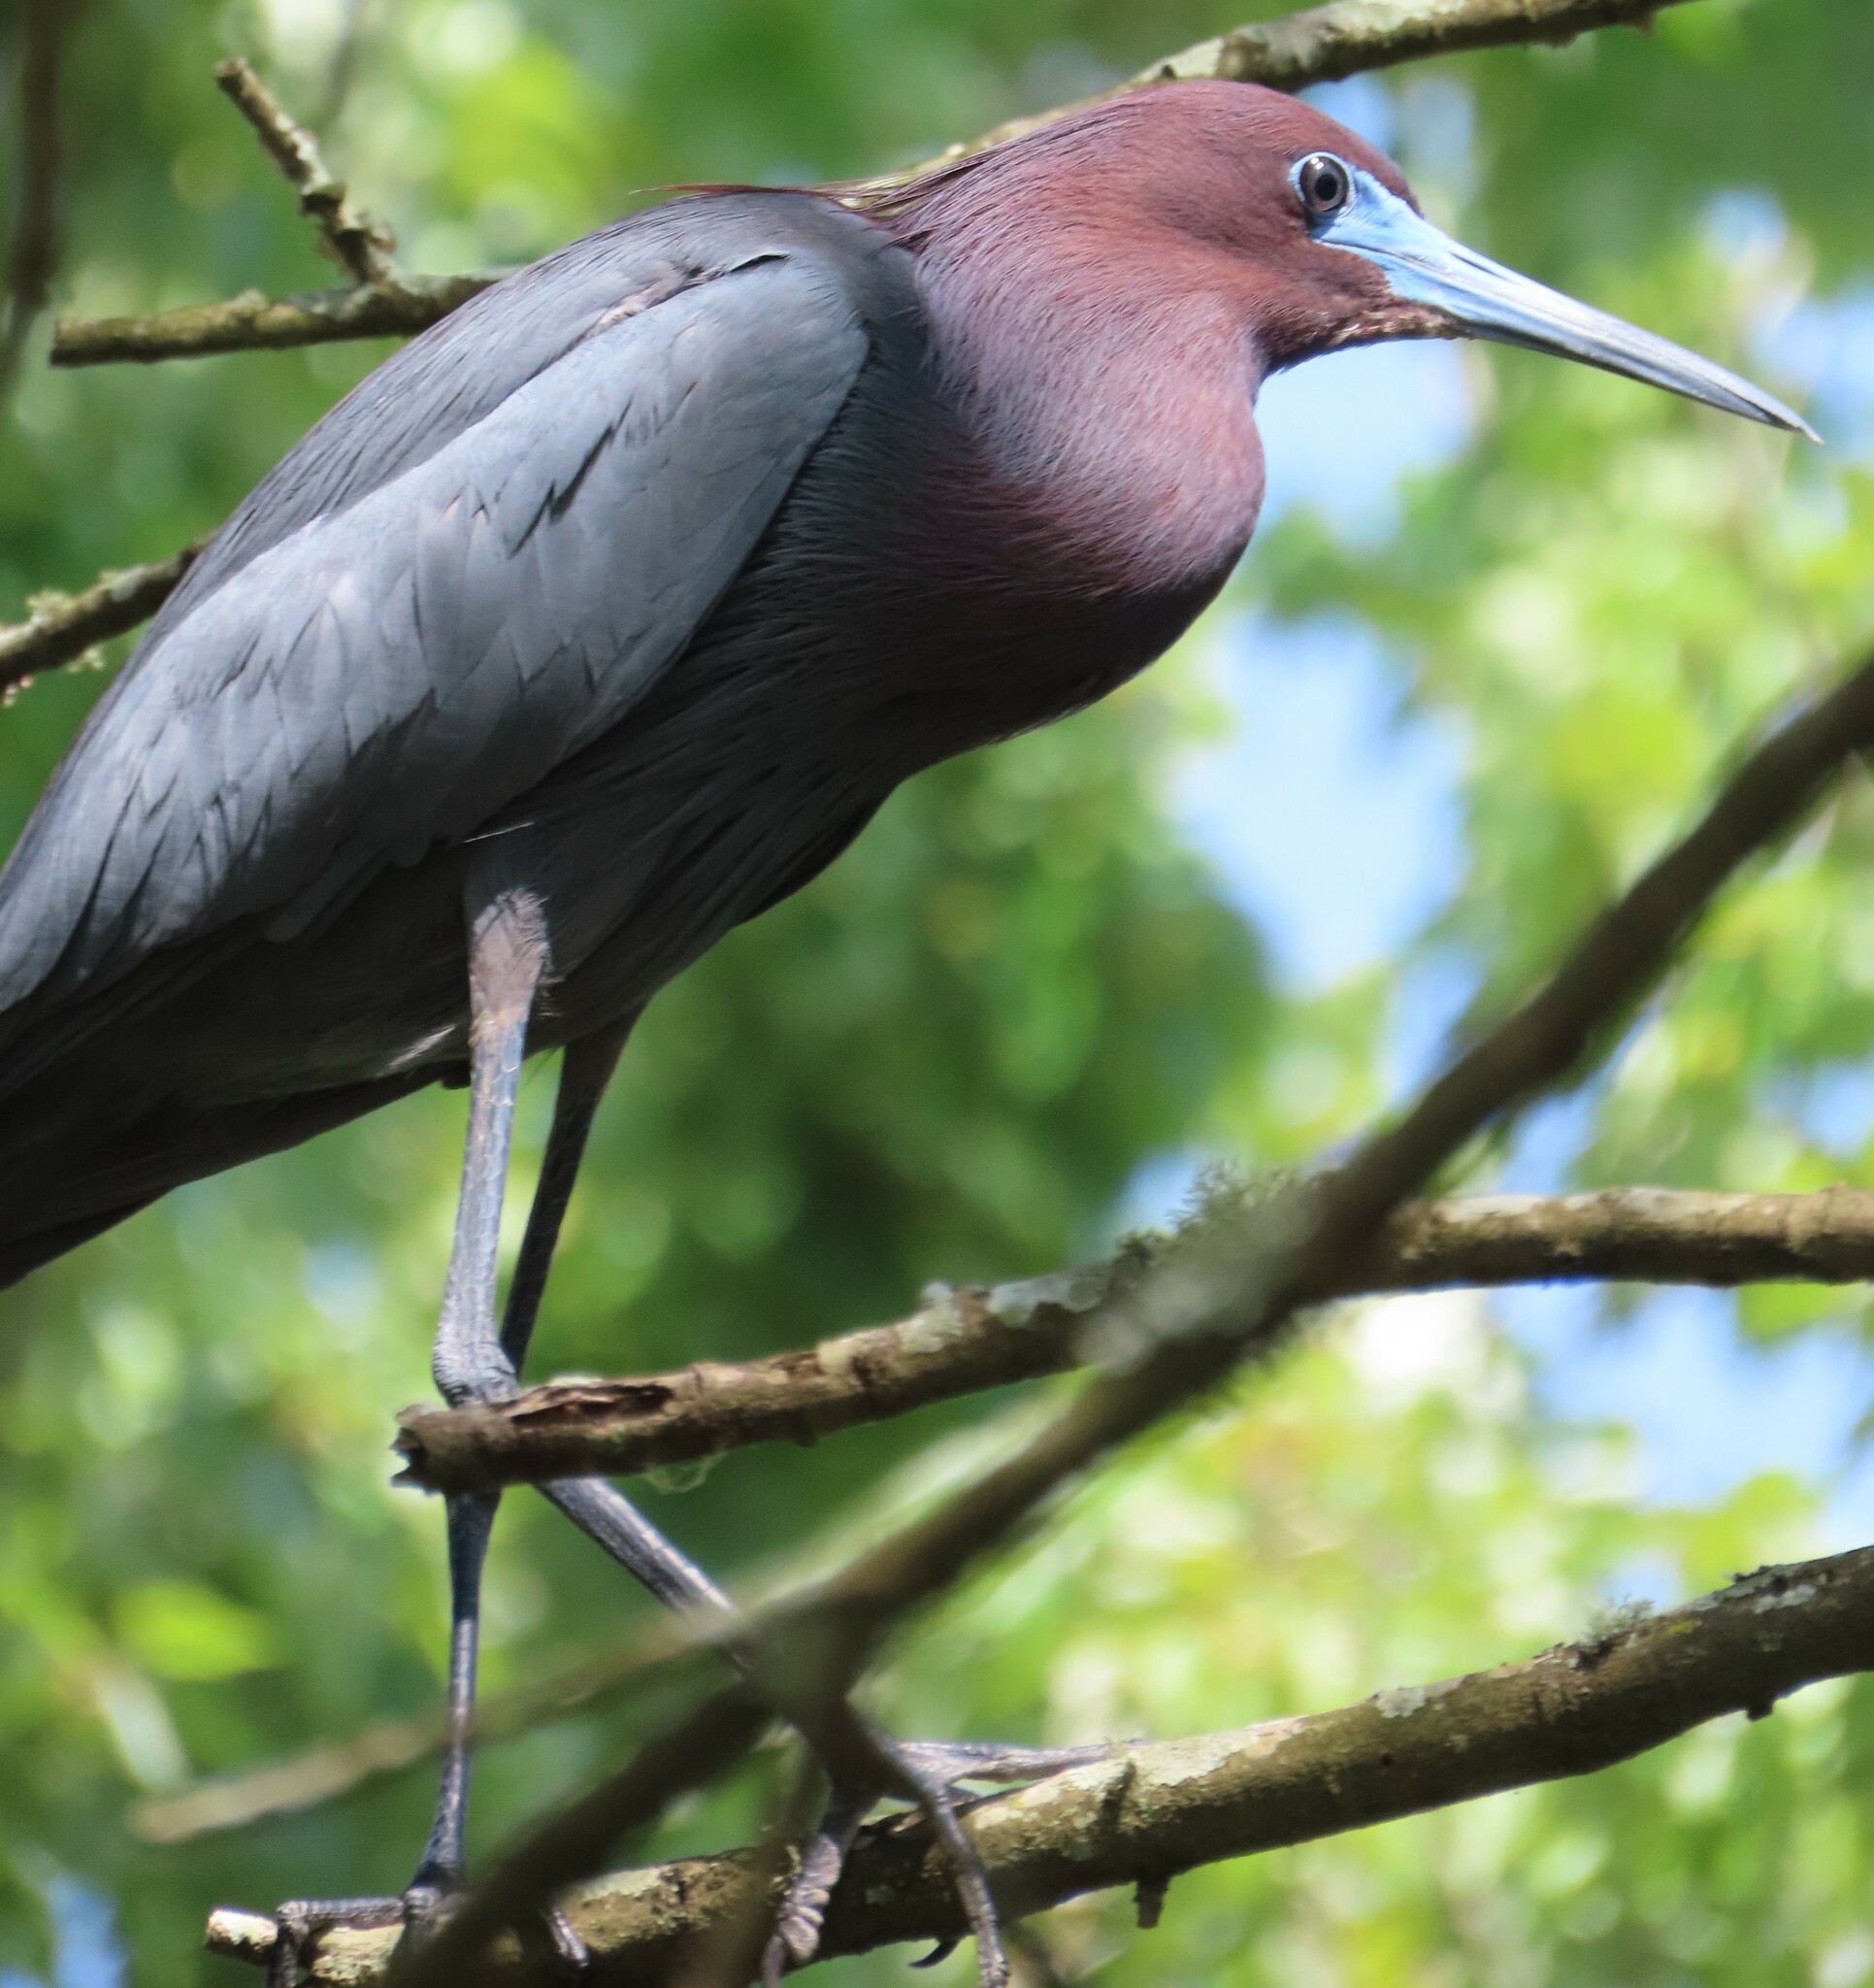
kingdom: Animalia
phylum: Chordata
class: Aves
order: Pelecaniformes
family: Ardeidae
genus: Egretta
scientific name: Egretta caerulea
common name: Little blue heron
